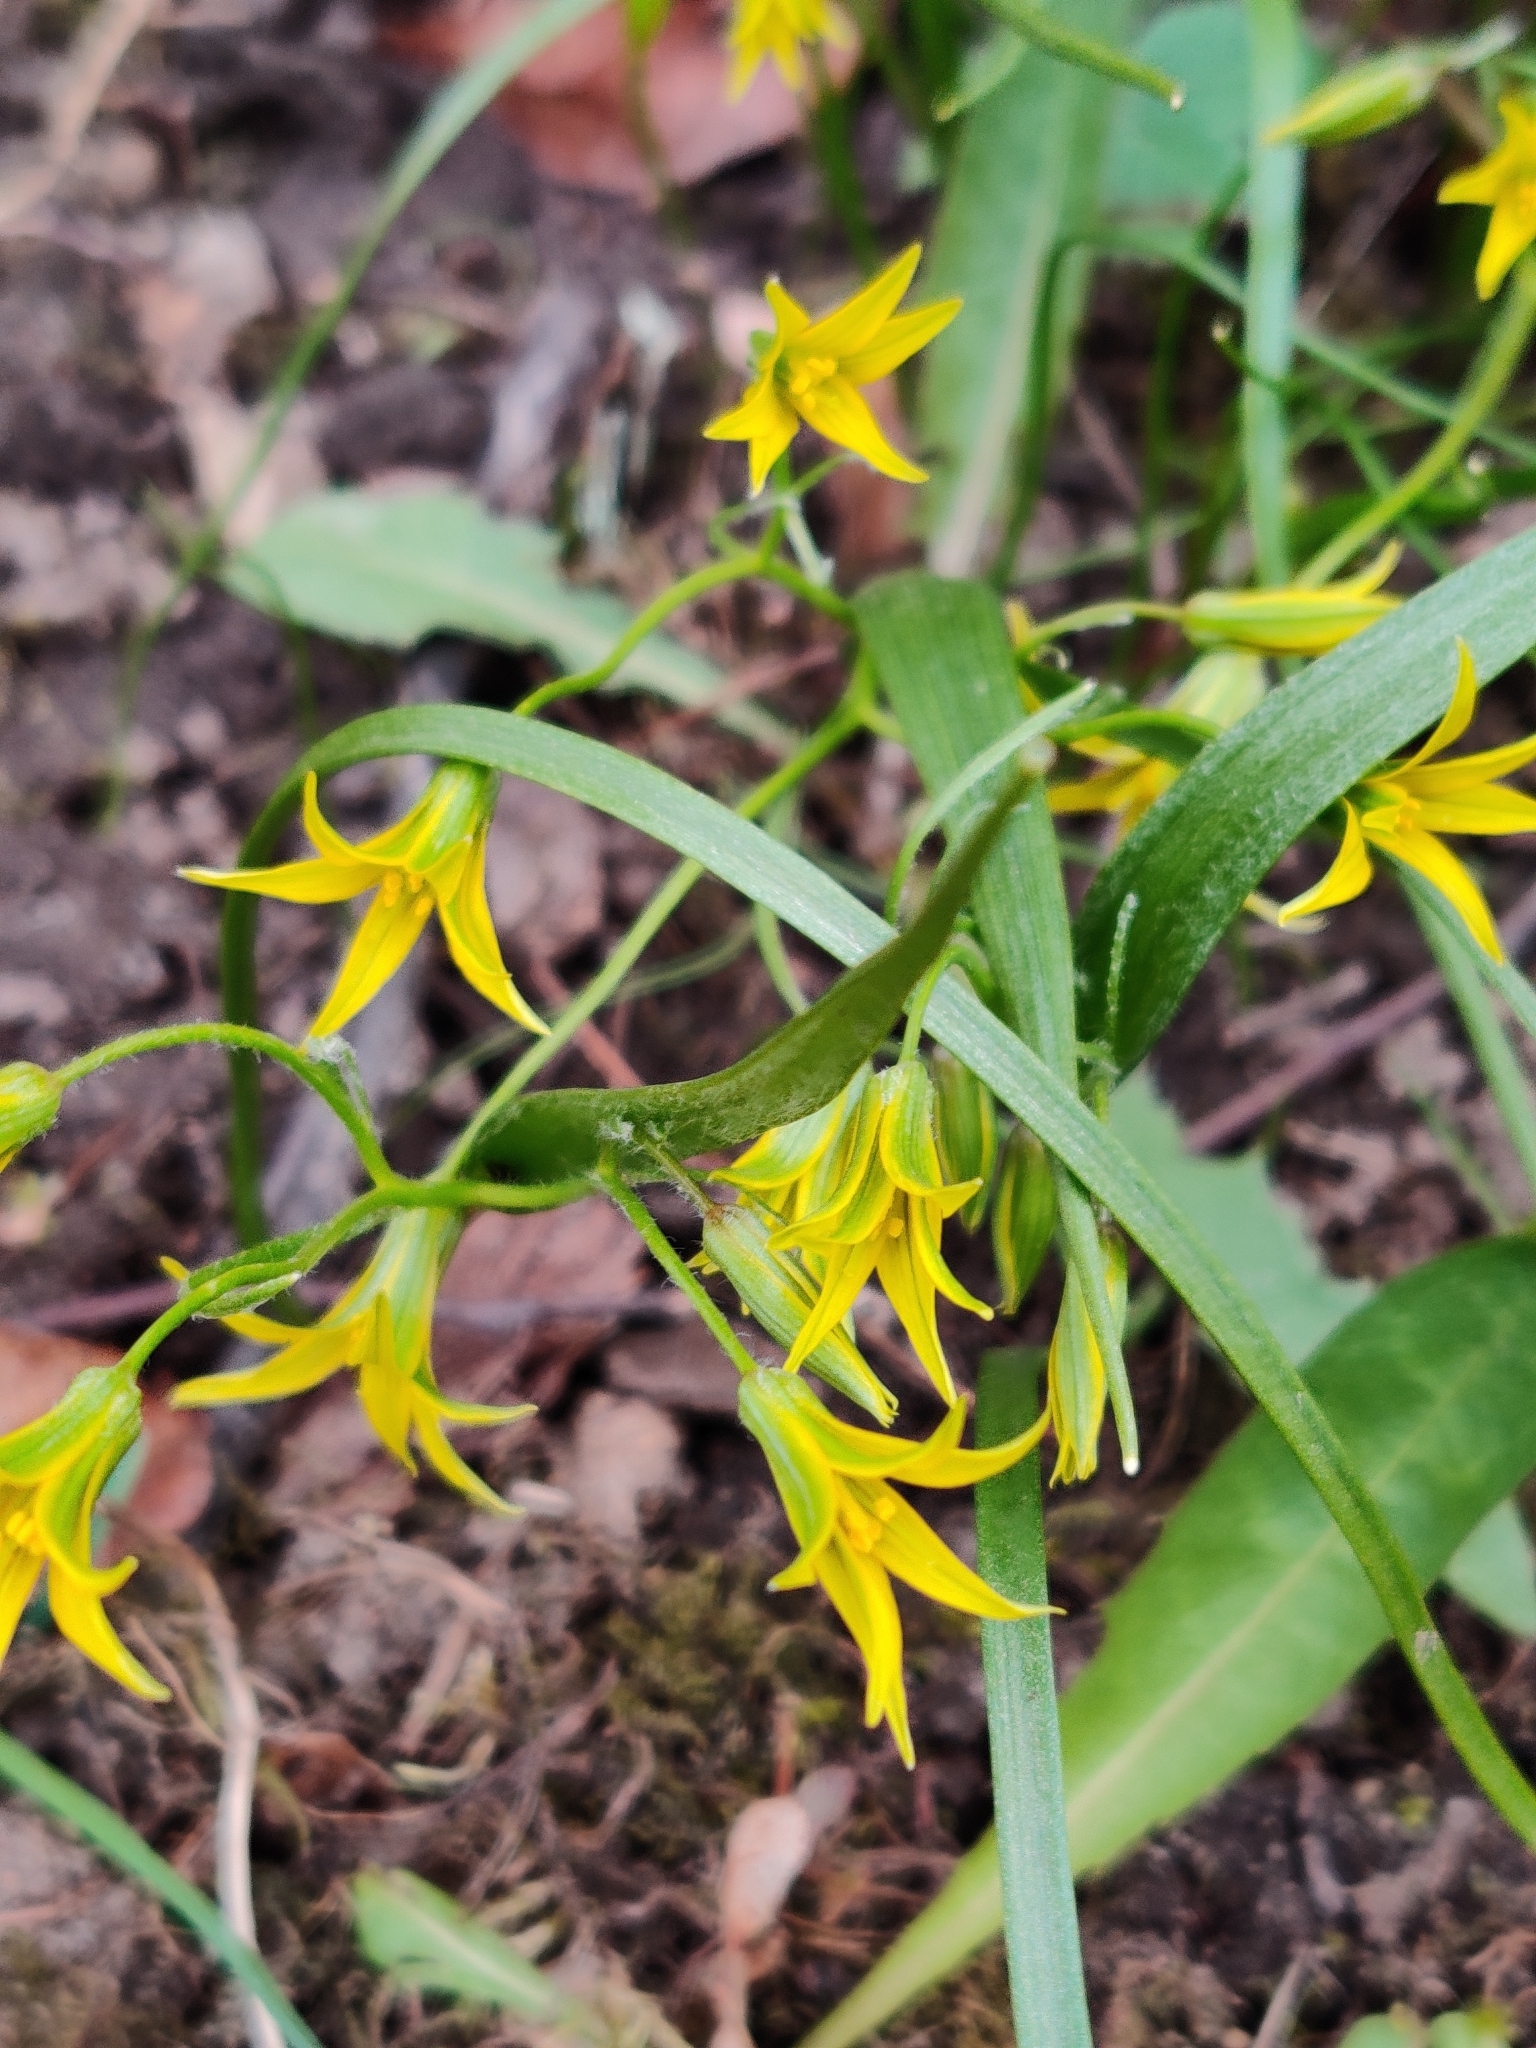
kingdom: Plantae
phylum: Tracheophyta
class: Liliopsida
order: Liliales
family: Liliaceae
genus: Gagea
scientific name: Gagea minima
